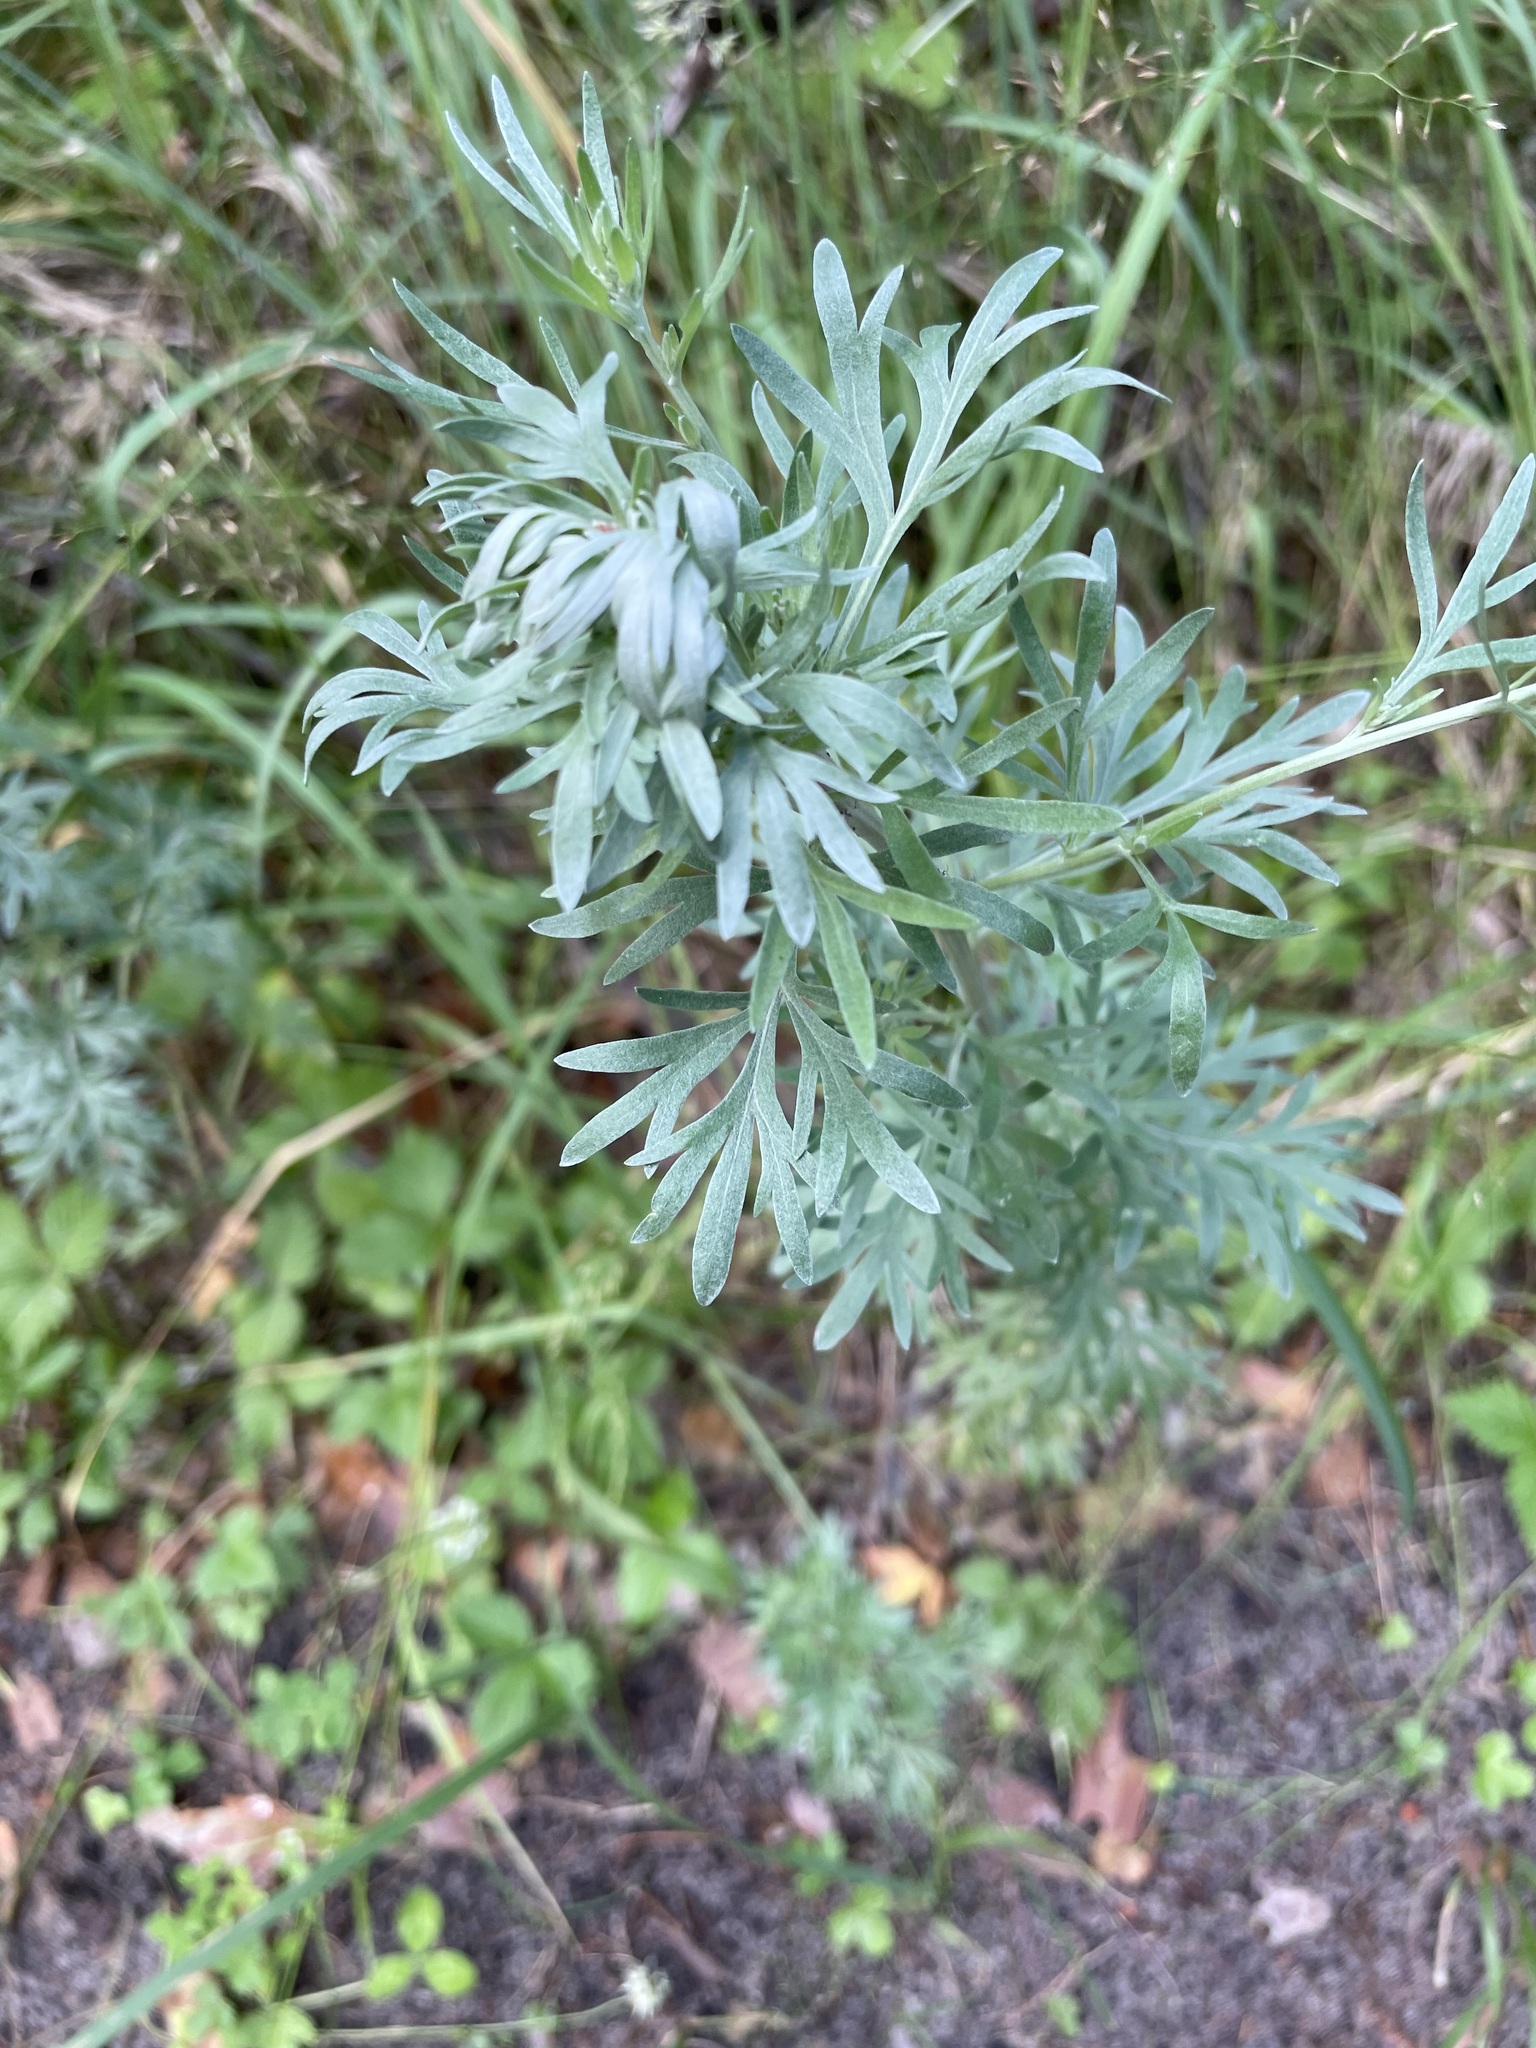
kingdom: Plantae
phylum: Tracheophyta
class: Magnoliopsida
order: Asterales
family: Asteraceae
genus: Artemisia
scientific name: Artemisia absinthium
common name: Wormwood
